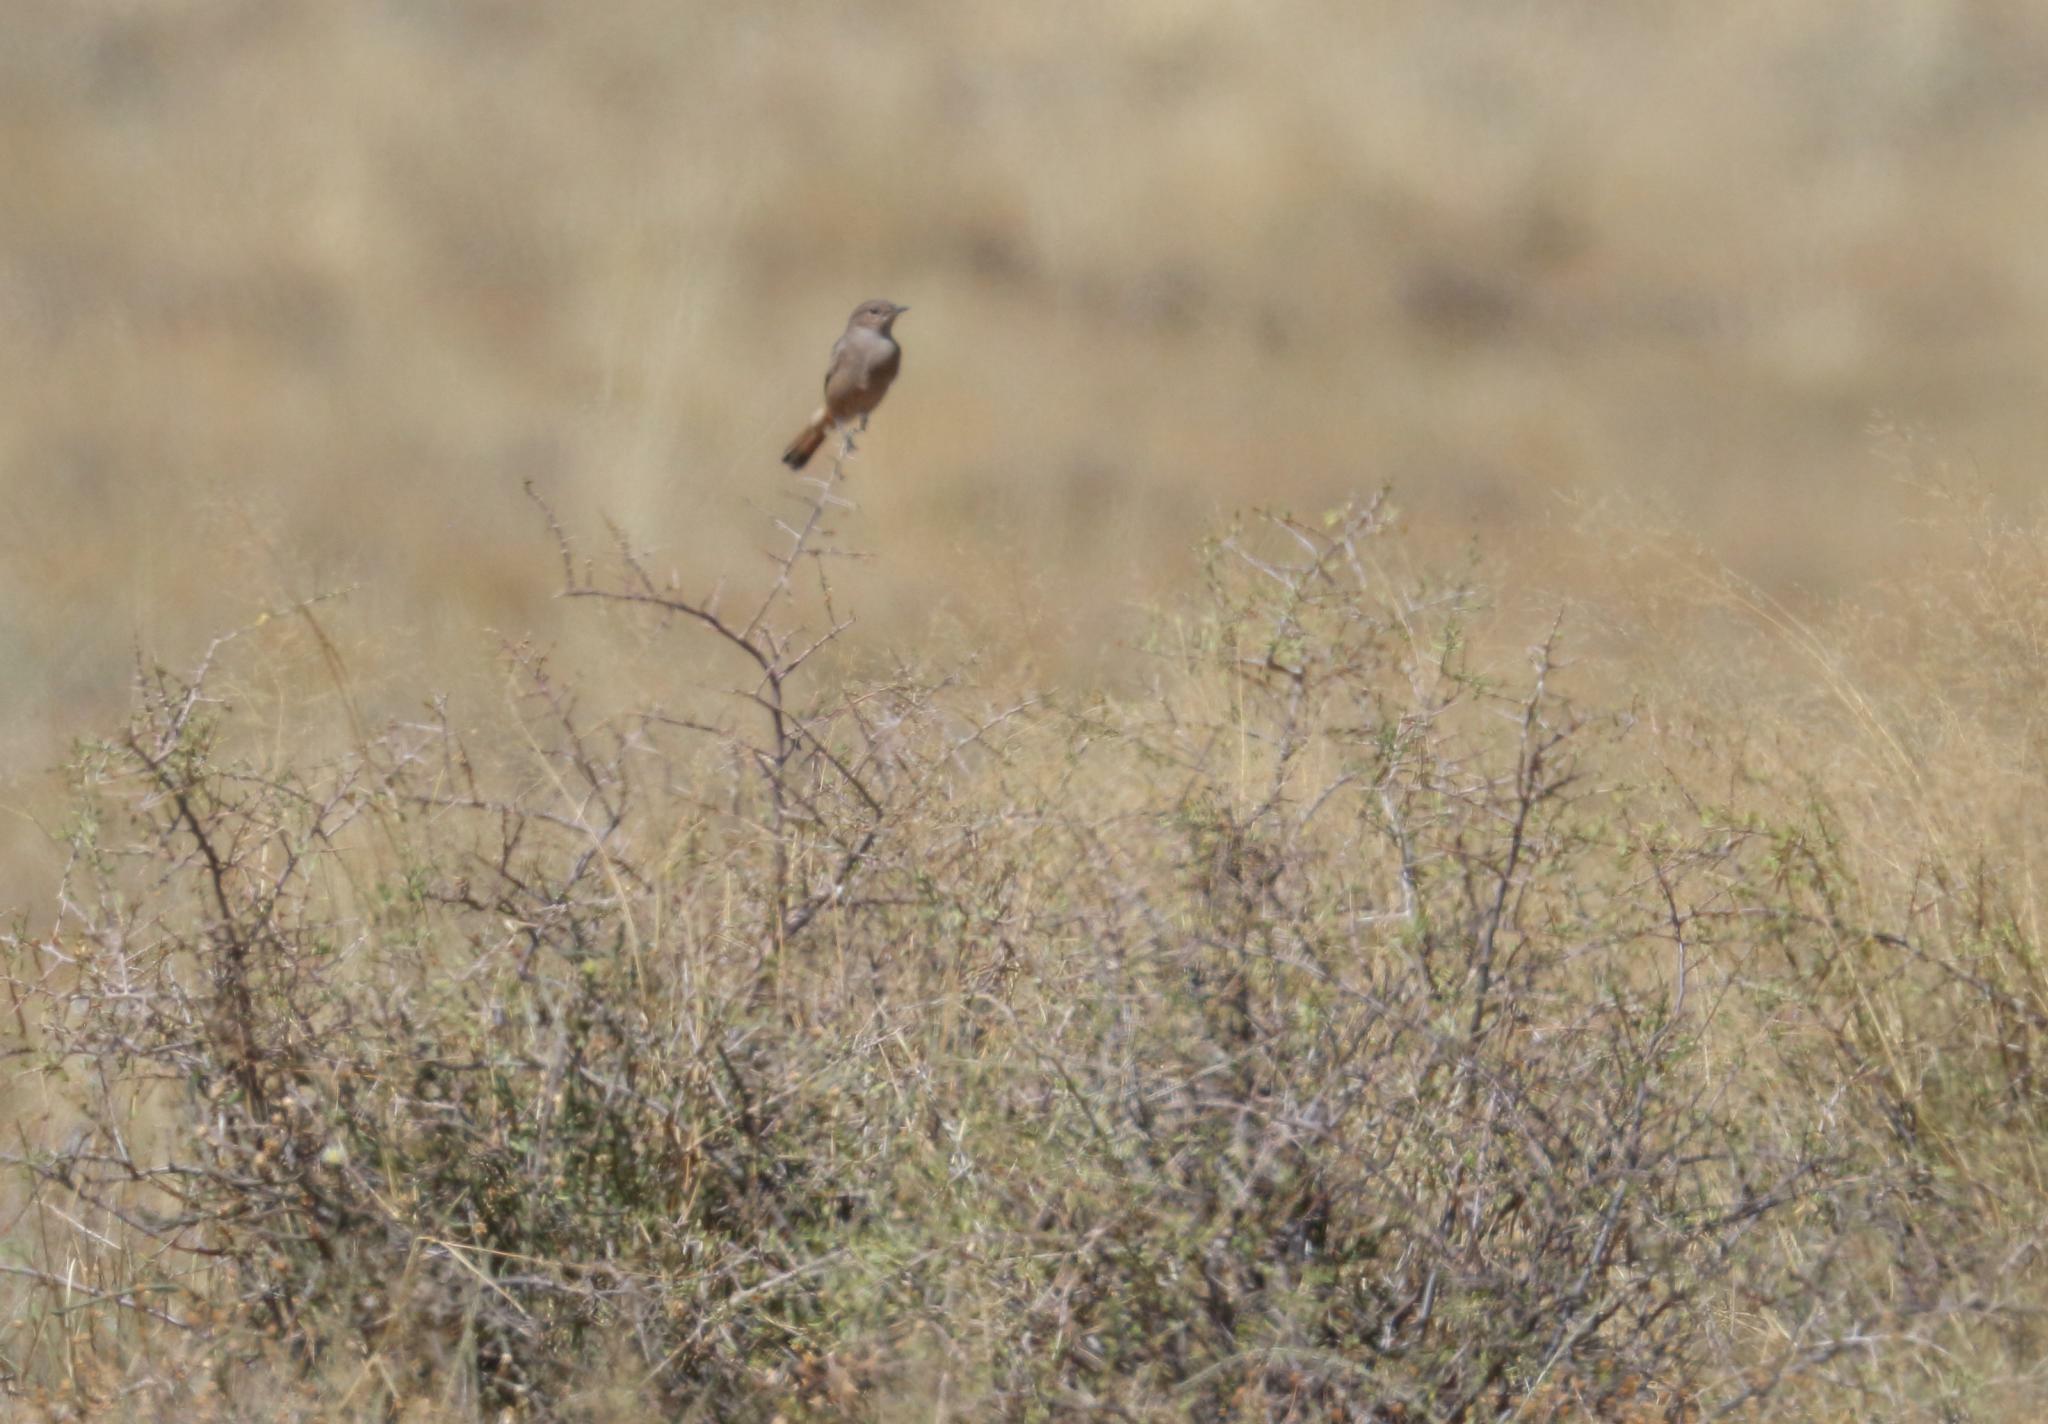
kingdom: Animalia
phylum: Chordata
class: Aves
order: Passeriformes
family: Muscicapidae
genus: Oenanthe
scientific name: Oenanthe familiaris
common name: Familiar chat
